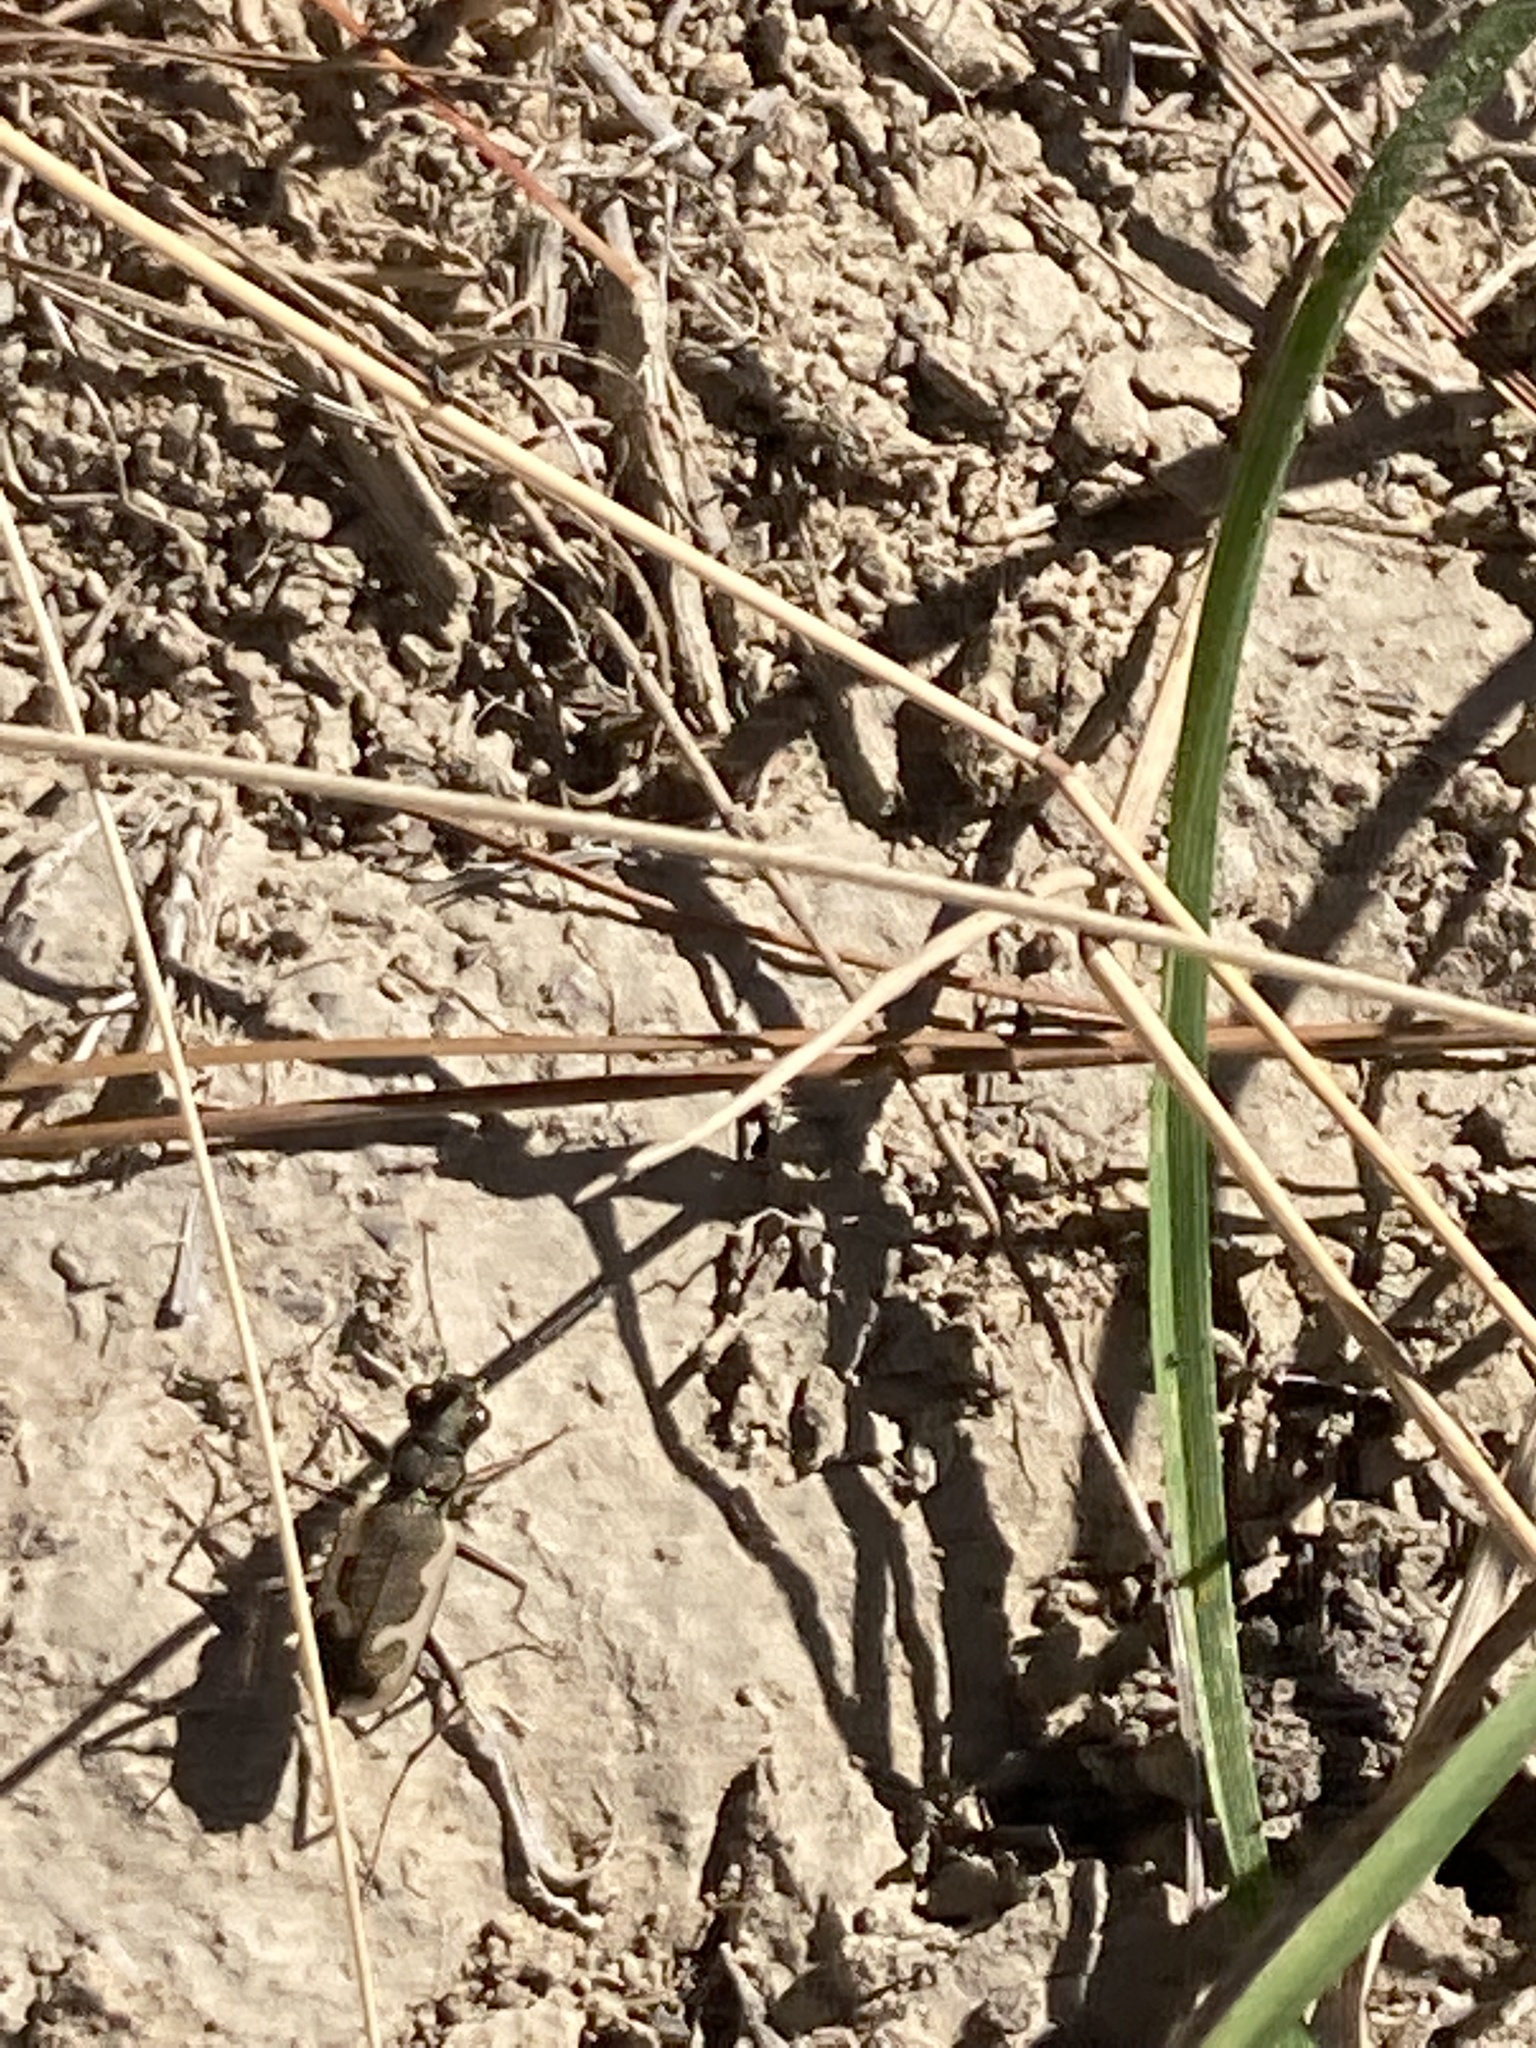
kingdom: Animalia
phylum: Arthropoda
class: Insecta
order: Coleoptera
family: Carabidae
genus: Neocicindela
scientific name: Neocicindela latecincta
